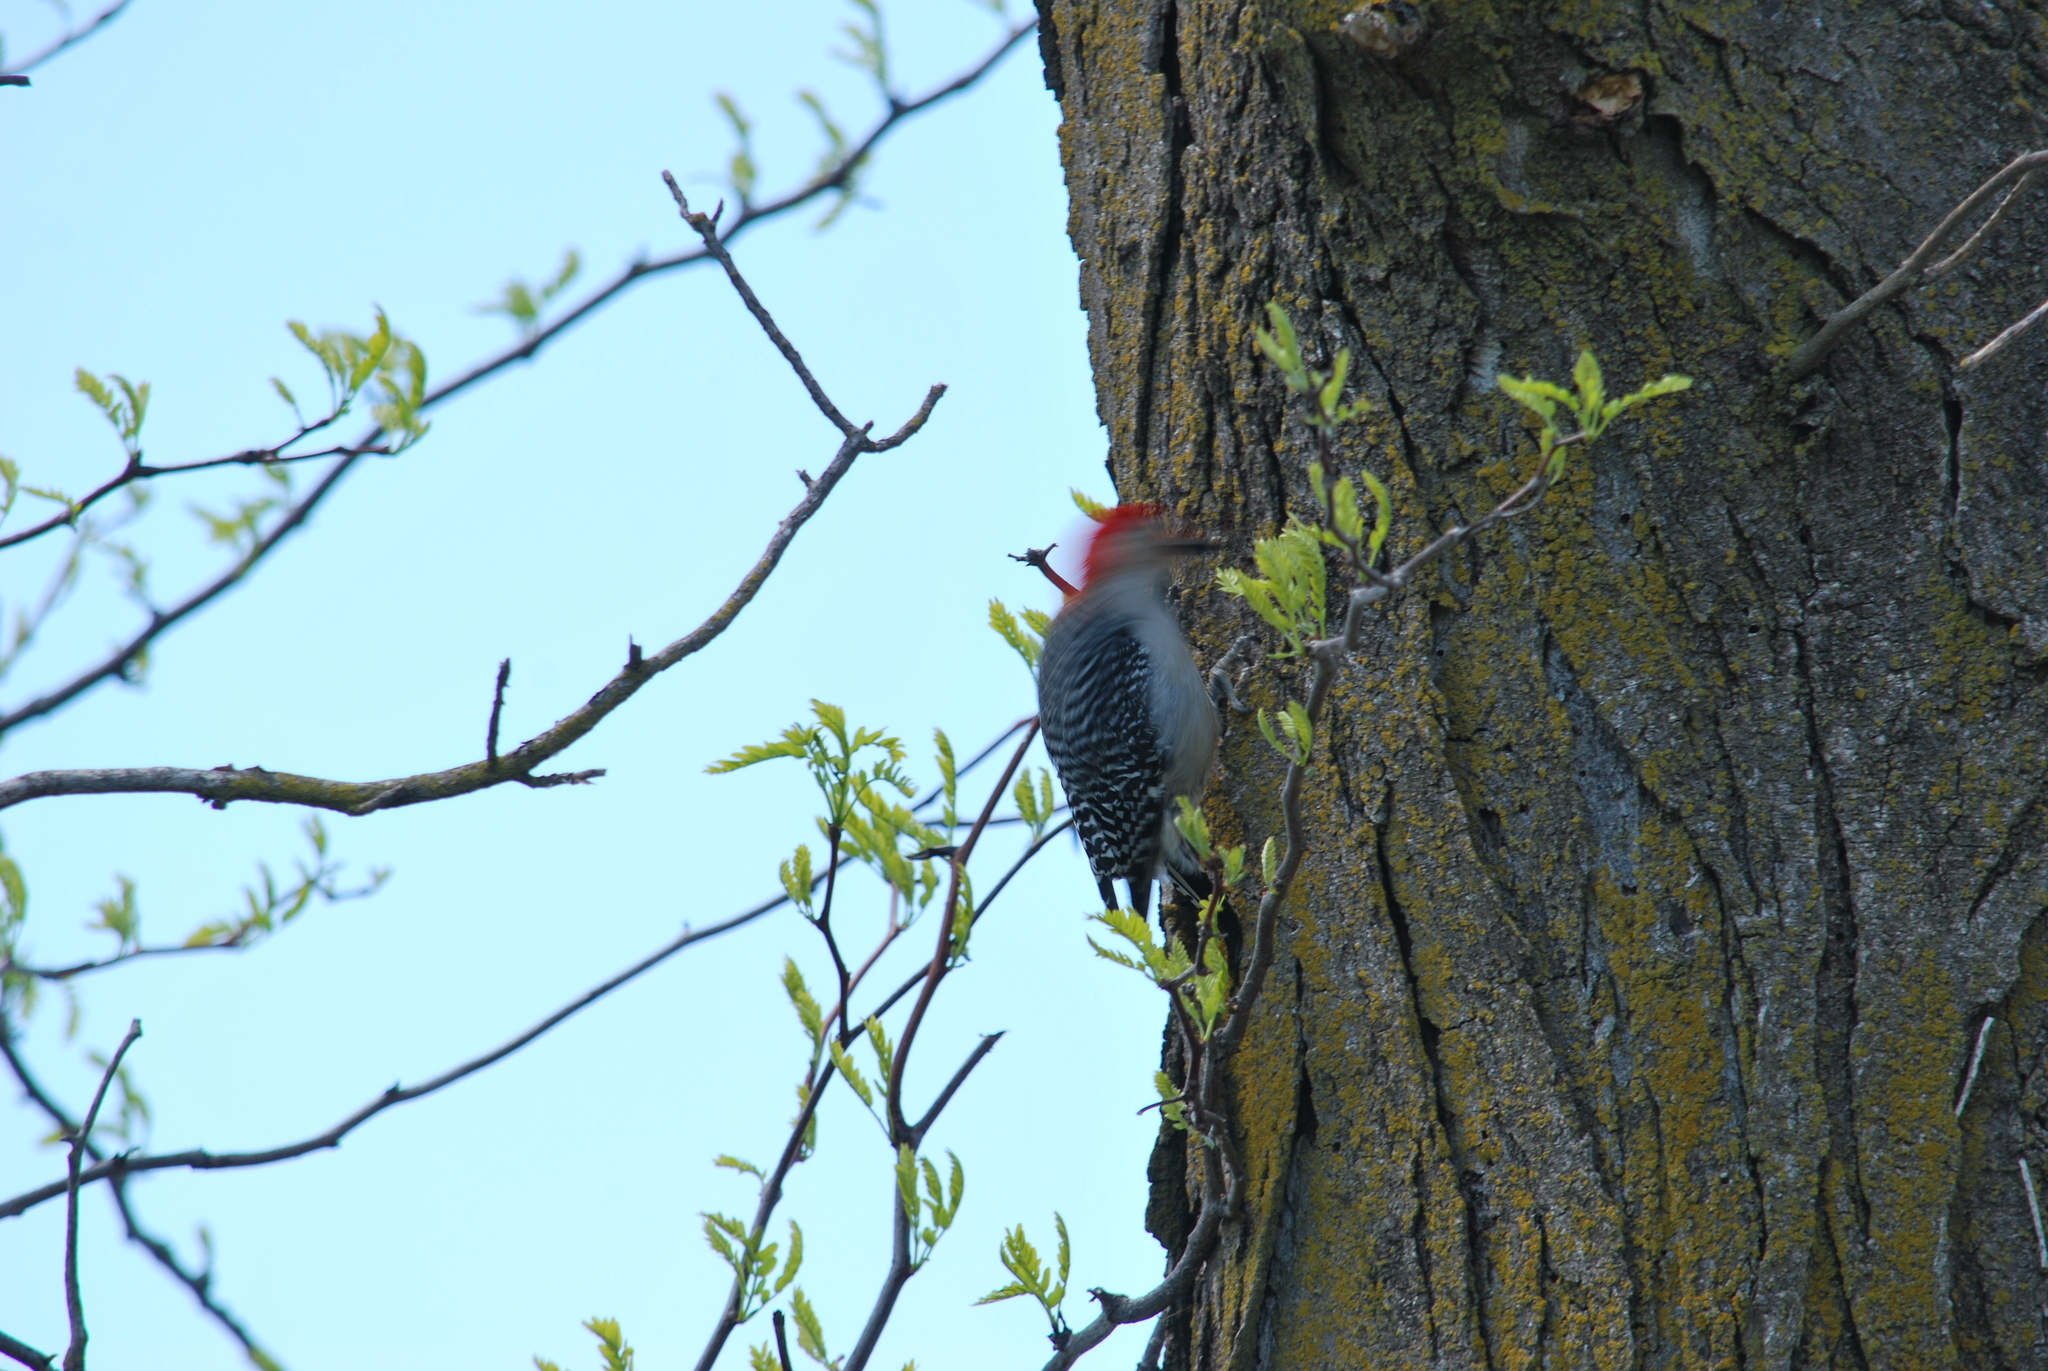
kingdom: Animalia
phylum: Chordata
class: Aves
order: Piciformes
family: Picidae
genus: Melanerpes
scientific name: Melanerpes carolinus
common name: Red-bellied woodpecker
